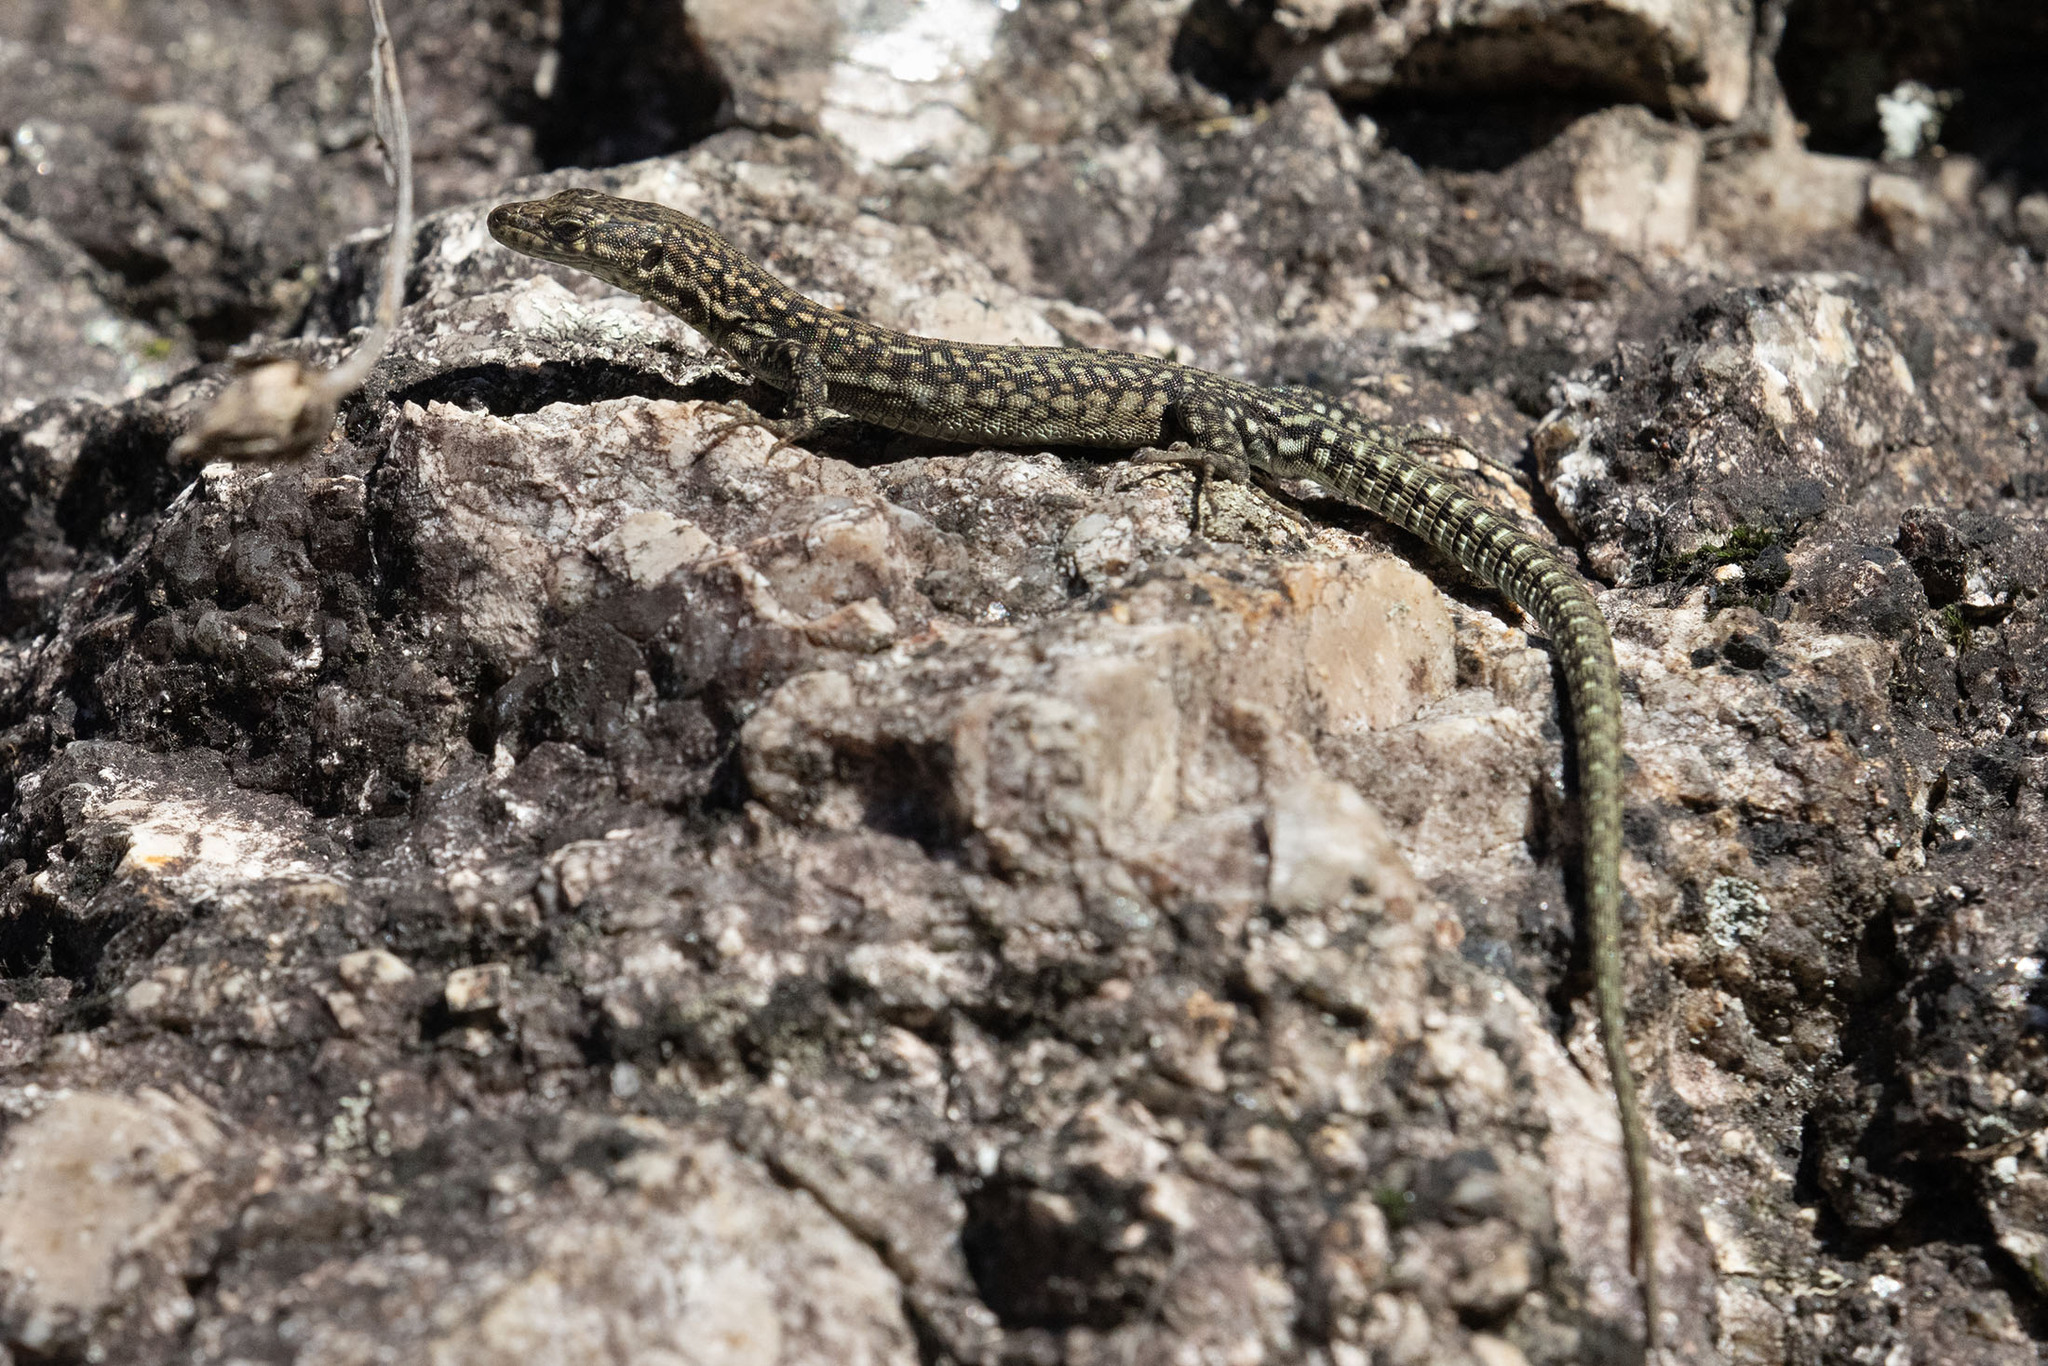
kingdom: Animalia
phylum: Chordata
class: Squamata
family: Lacertidae
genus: Podarcis
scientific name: Podarcis
